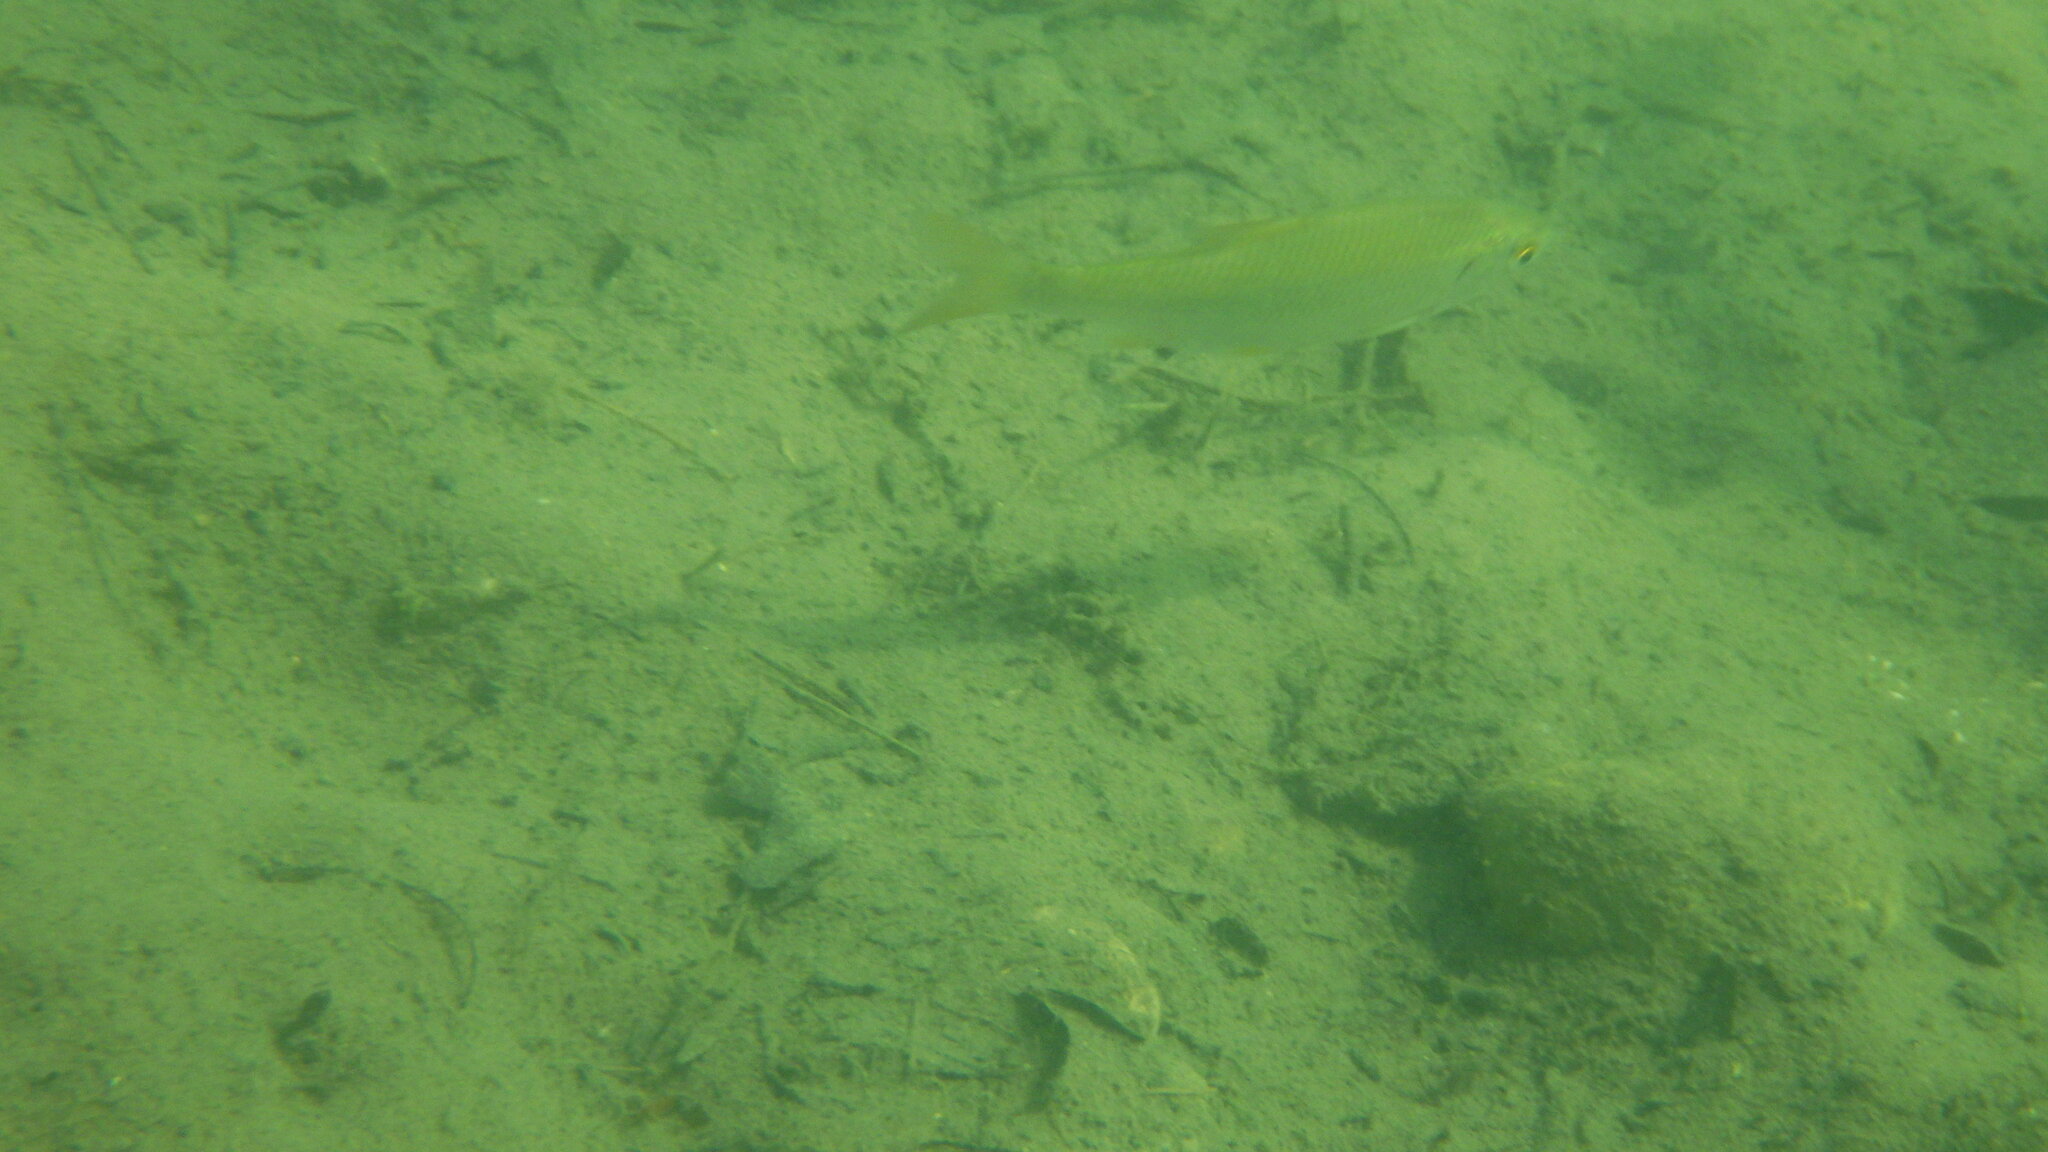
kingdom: Animalia
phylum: Chordata
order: Cypriniformes
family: Cyprinidae
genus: Rutilus
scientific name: Rutilus rutilus
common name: Roach
